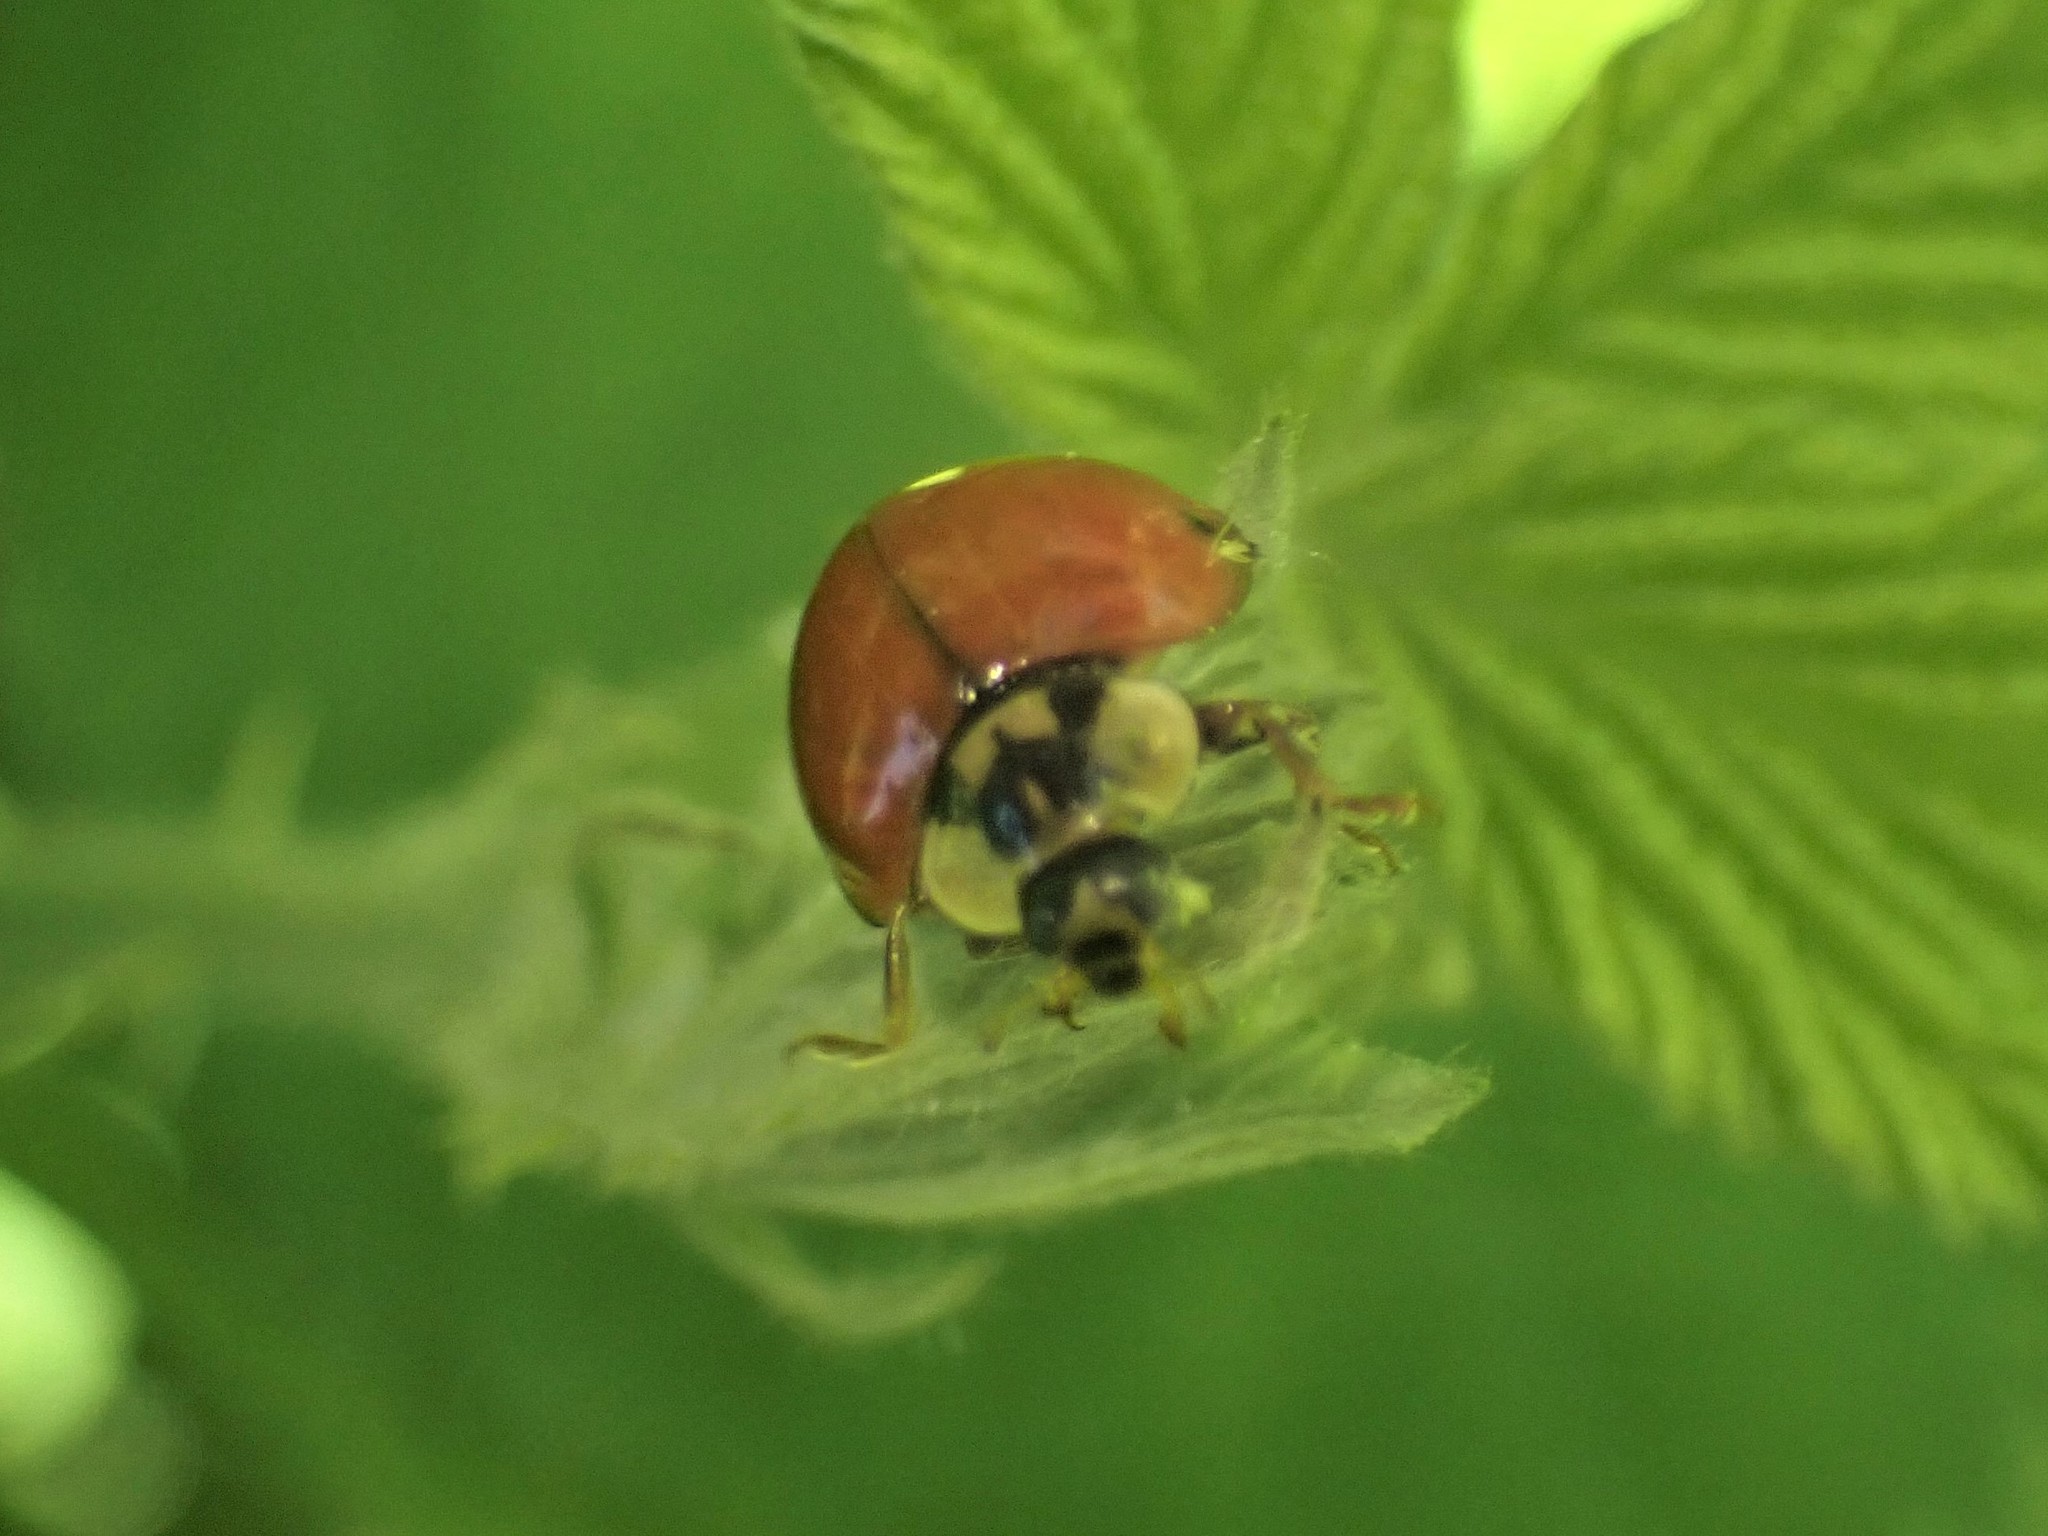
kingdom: Animalia
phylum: Arthropoda
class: Insecta
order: Coleoptera
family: Coccinellidae
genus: Harmonia
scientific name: Harmonia axyridis
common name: Harlequin ladybird
